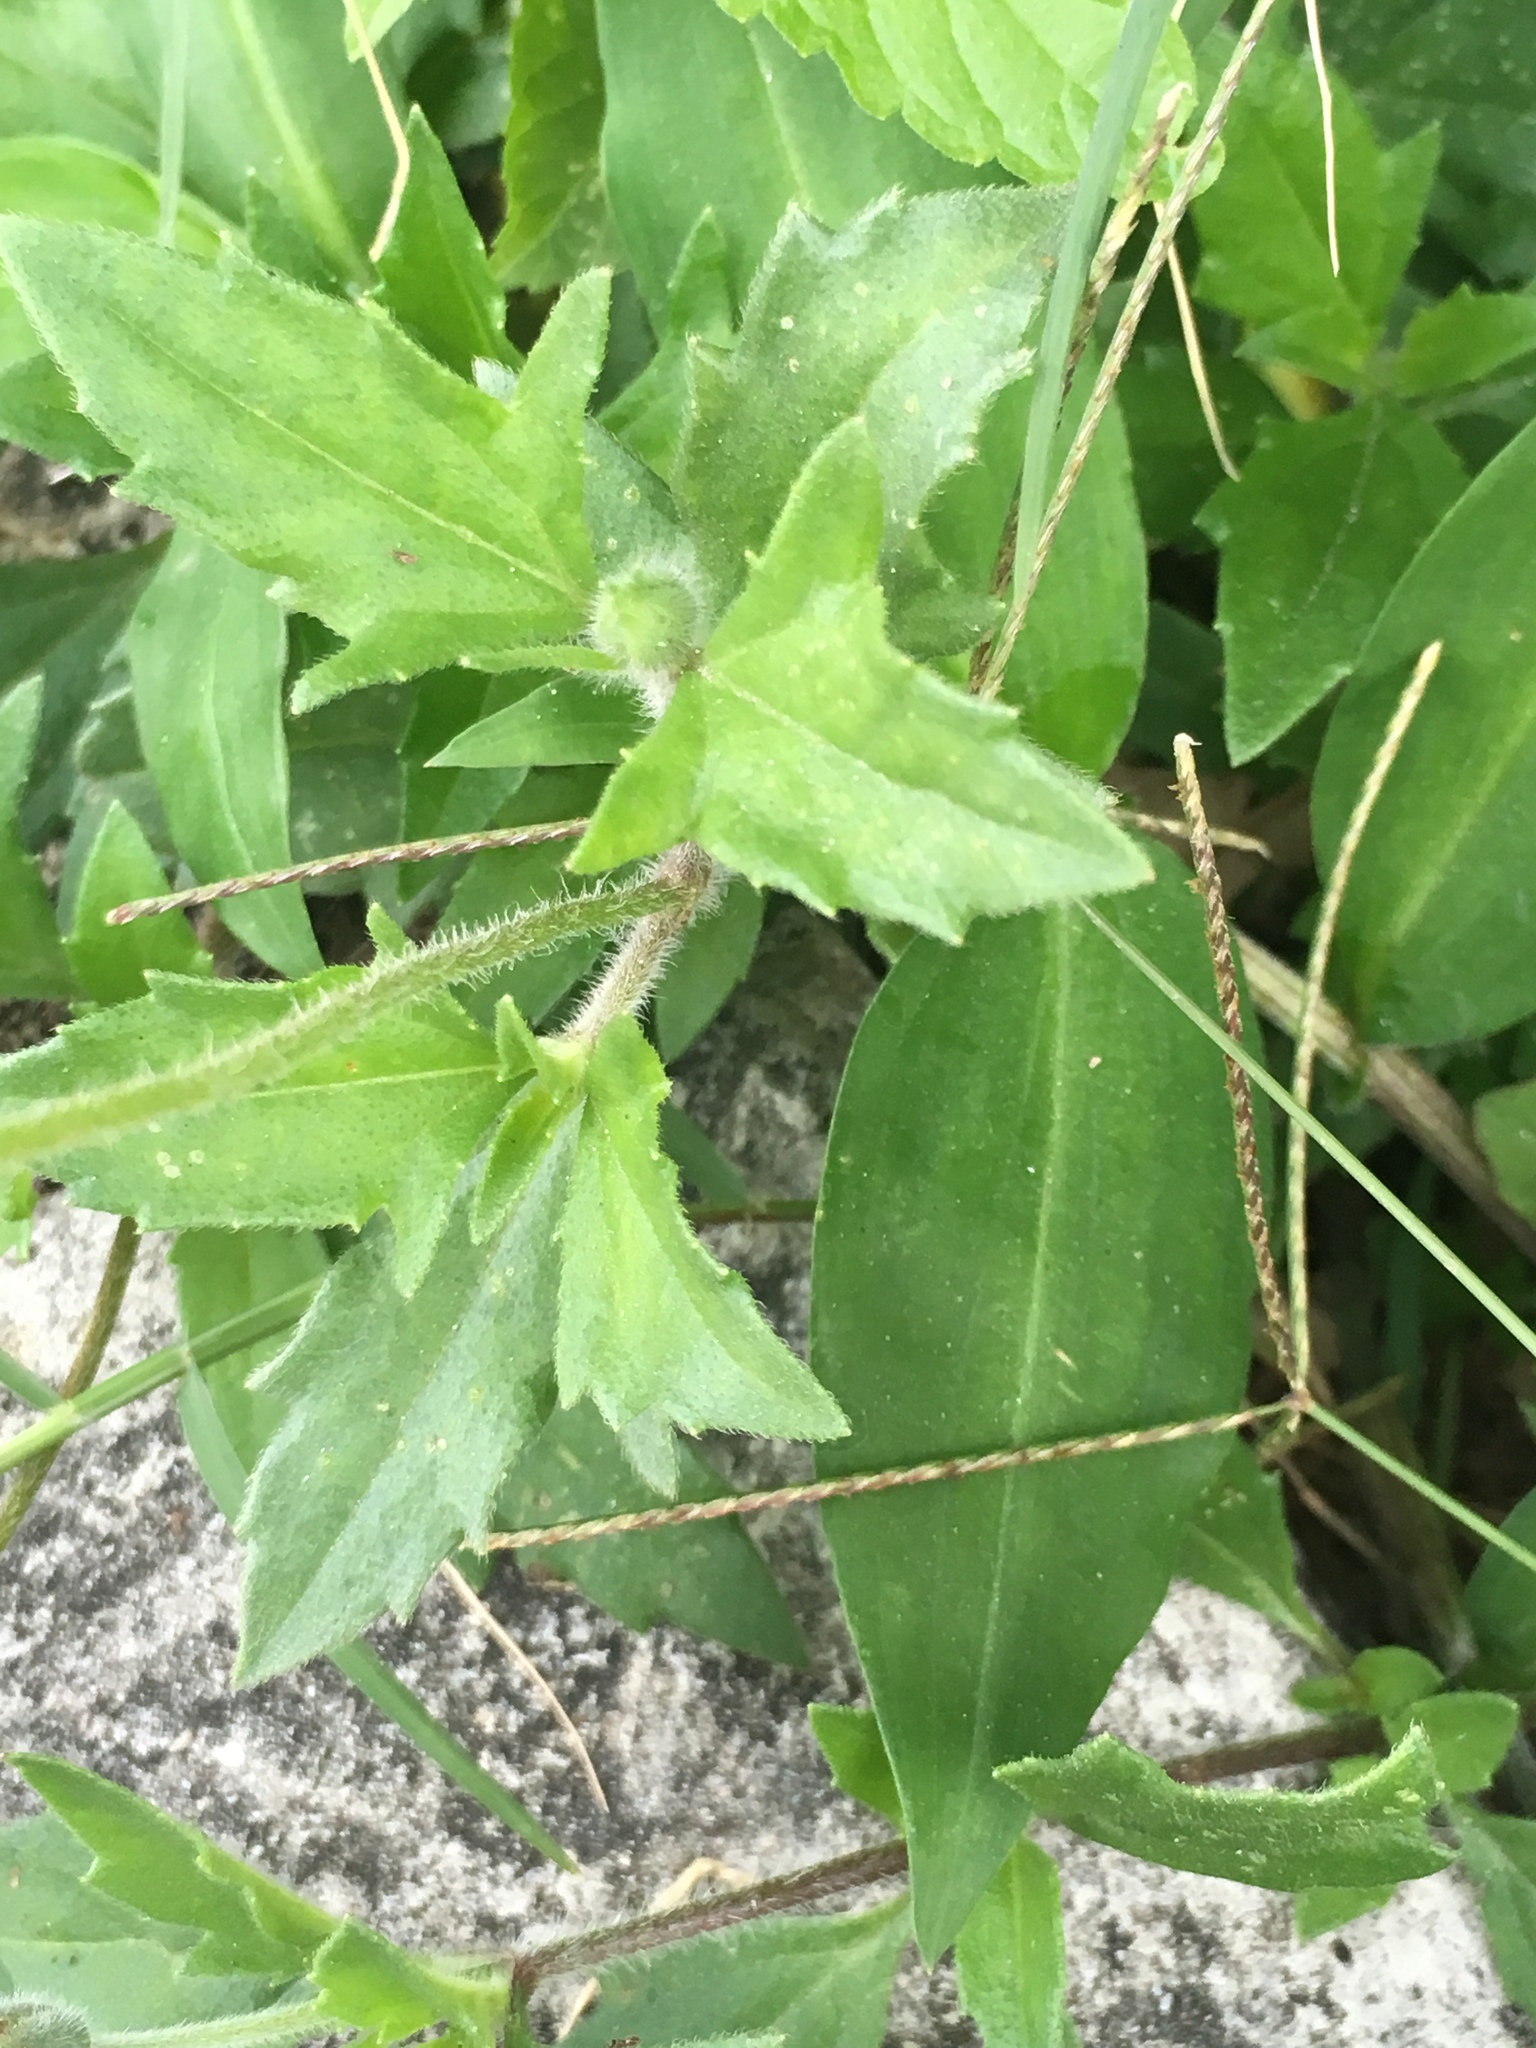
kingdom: Plantae
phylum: Tracheophyta
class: Magnoliopsida
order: Asterales
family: Asteraceae
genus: Tridax
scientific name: Tridax procumbens
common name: Coatbuttons
